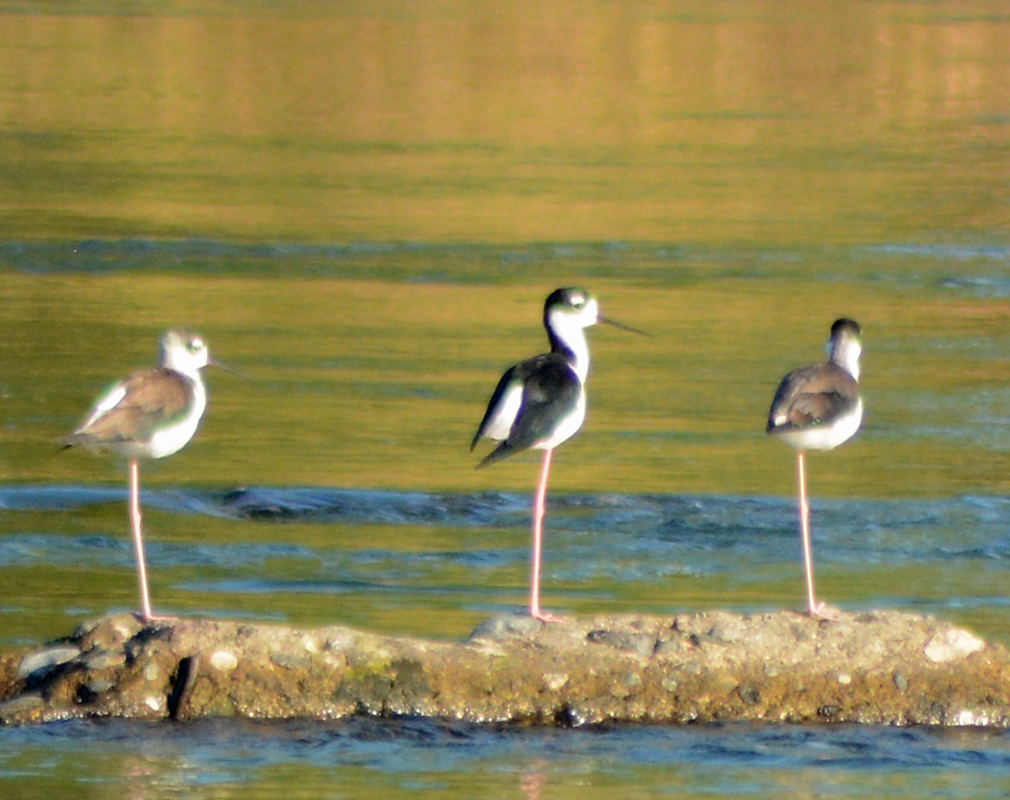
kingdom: Animalia
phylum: Chordata
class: Aves
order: Charadriiformes
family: Recurvirostridae
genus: Himantopus
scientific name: Himantopus mexicanus
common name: Black-necked stilt
